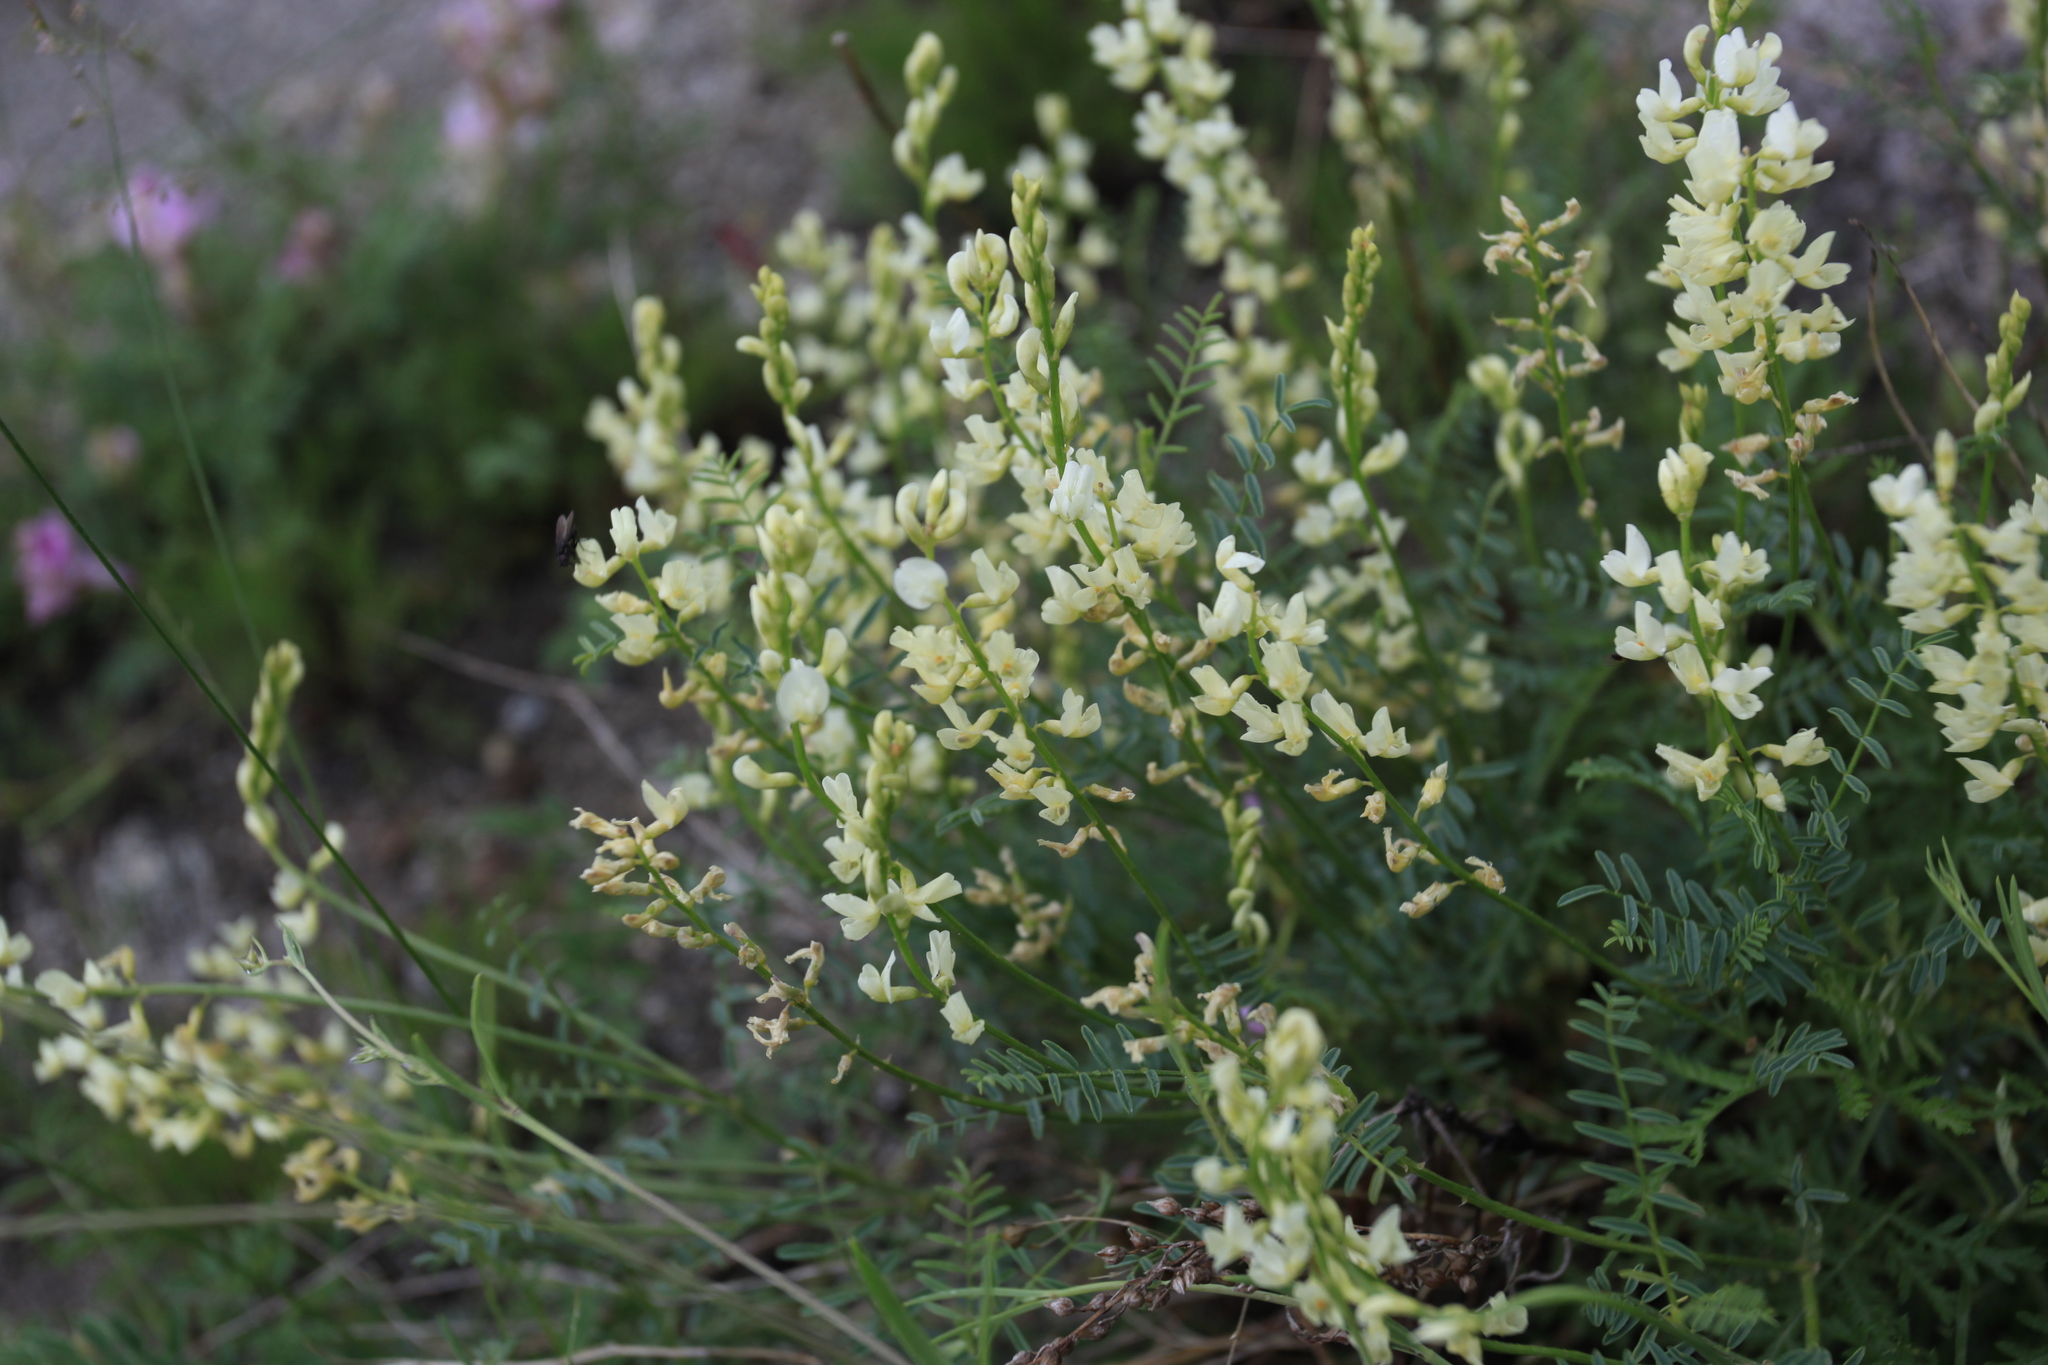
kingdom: Plantae
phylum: Tracheophyta
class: Magnoliopsida
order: Fabales
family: Fabaceae
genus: Astragalus
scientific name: Astragalus katunicus
